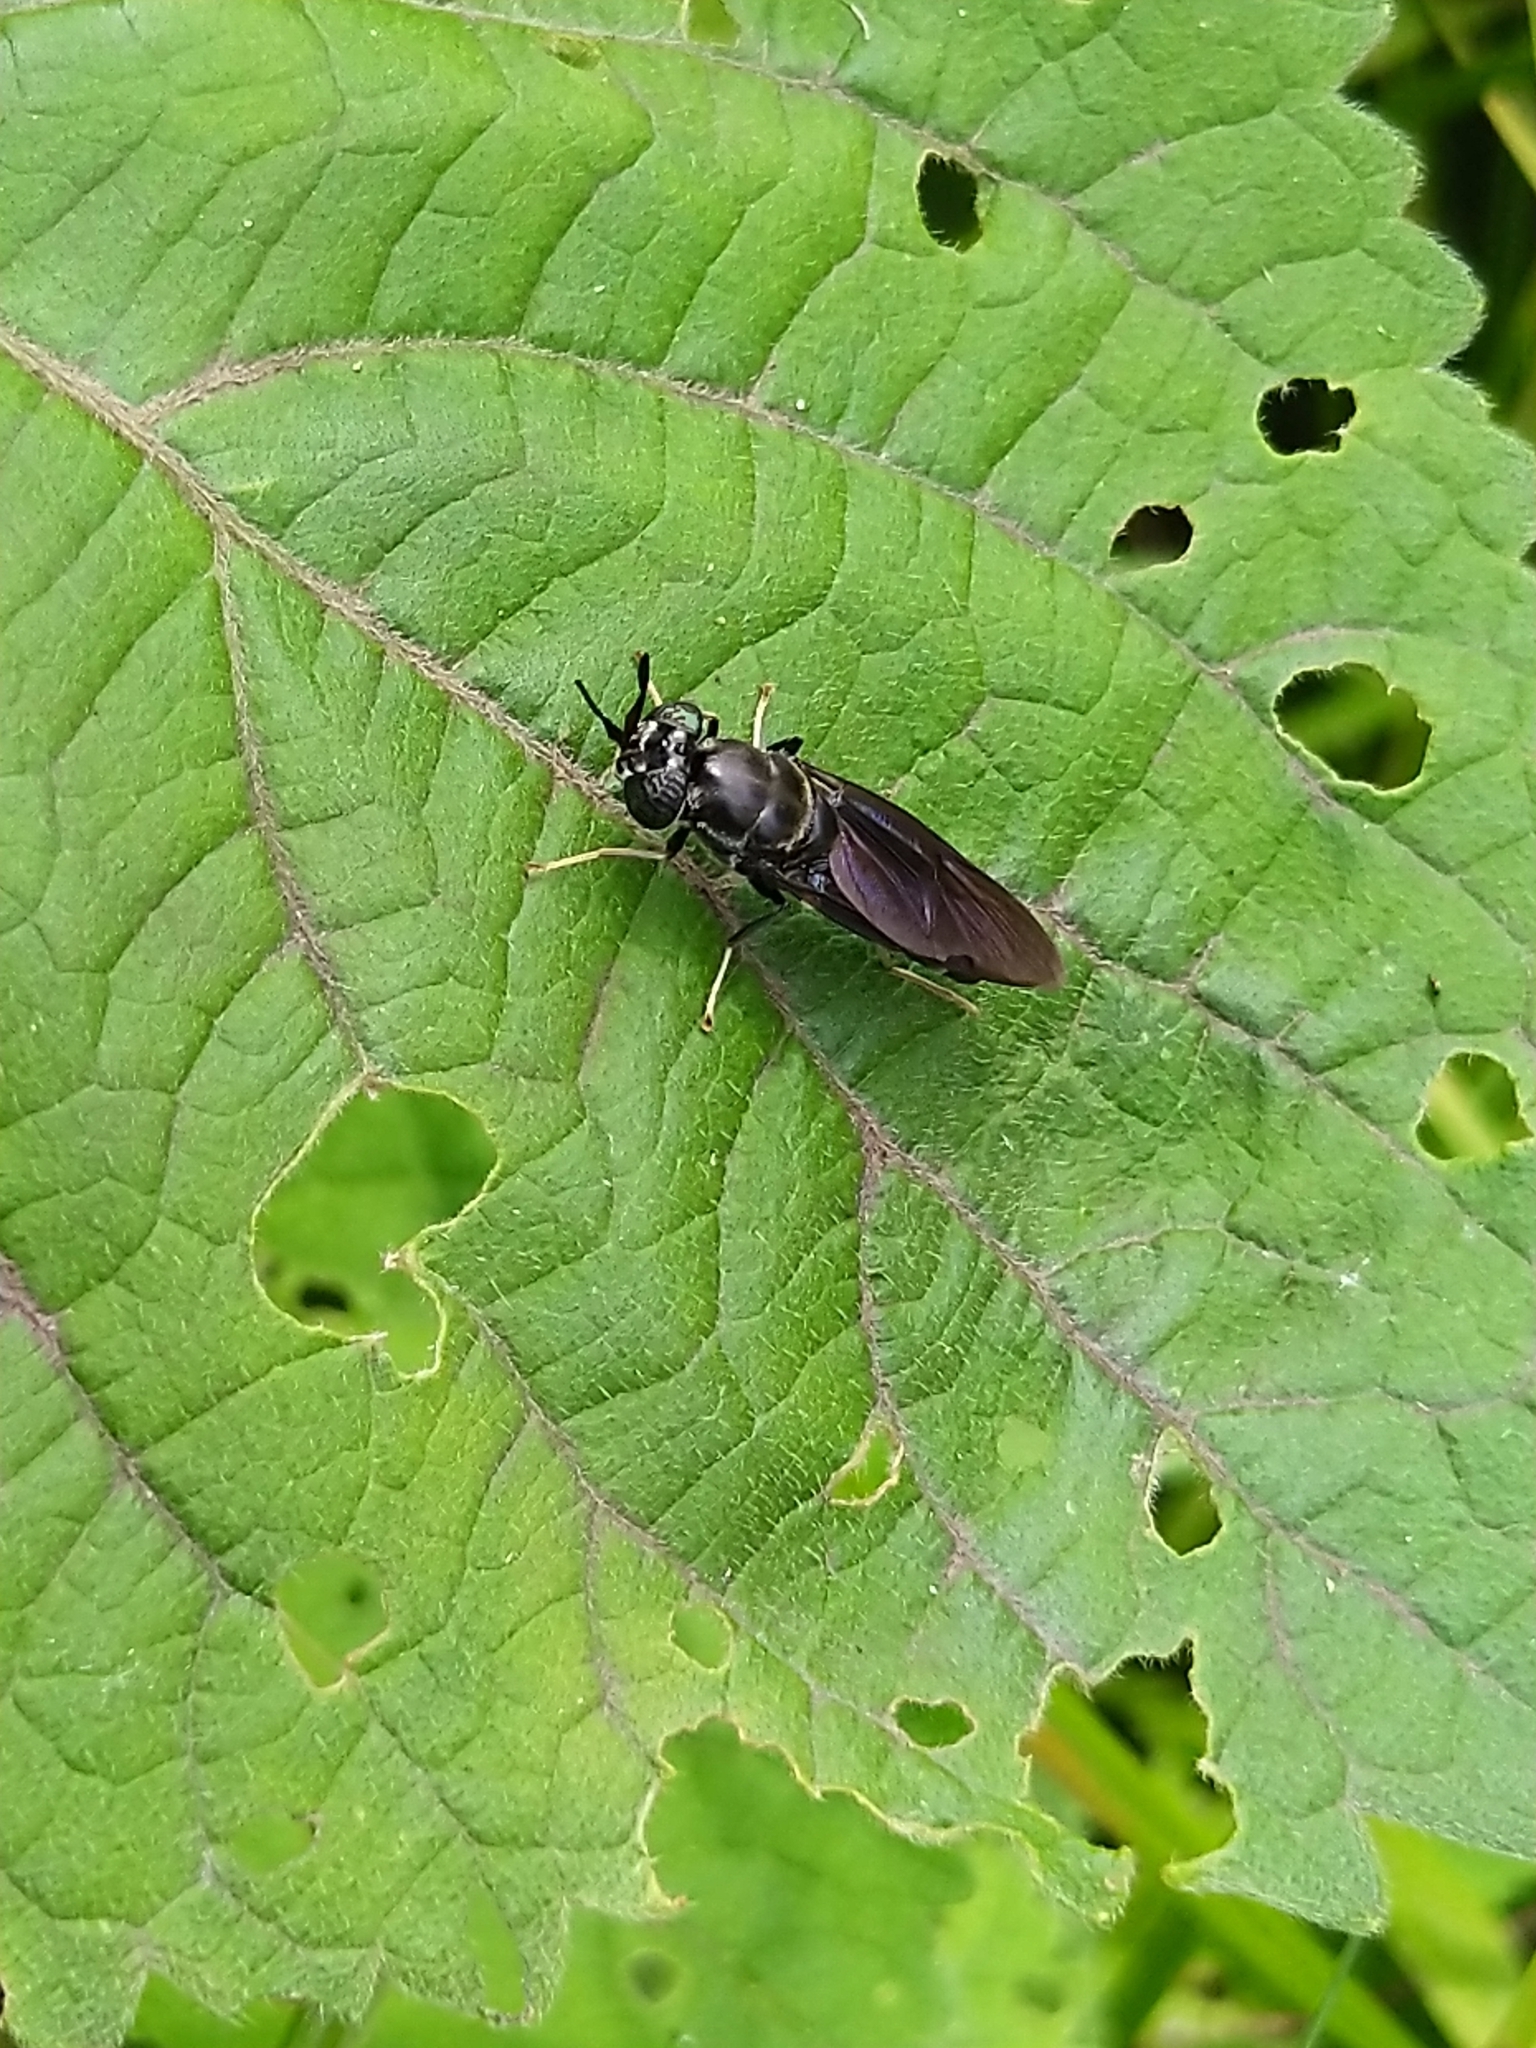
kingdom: Animalia
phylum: Arthropoda
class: Insecta
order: Diptera
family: Stratiomyidae
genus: Hermetia
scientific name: Hermetia illucens
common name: Black soldier fly
